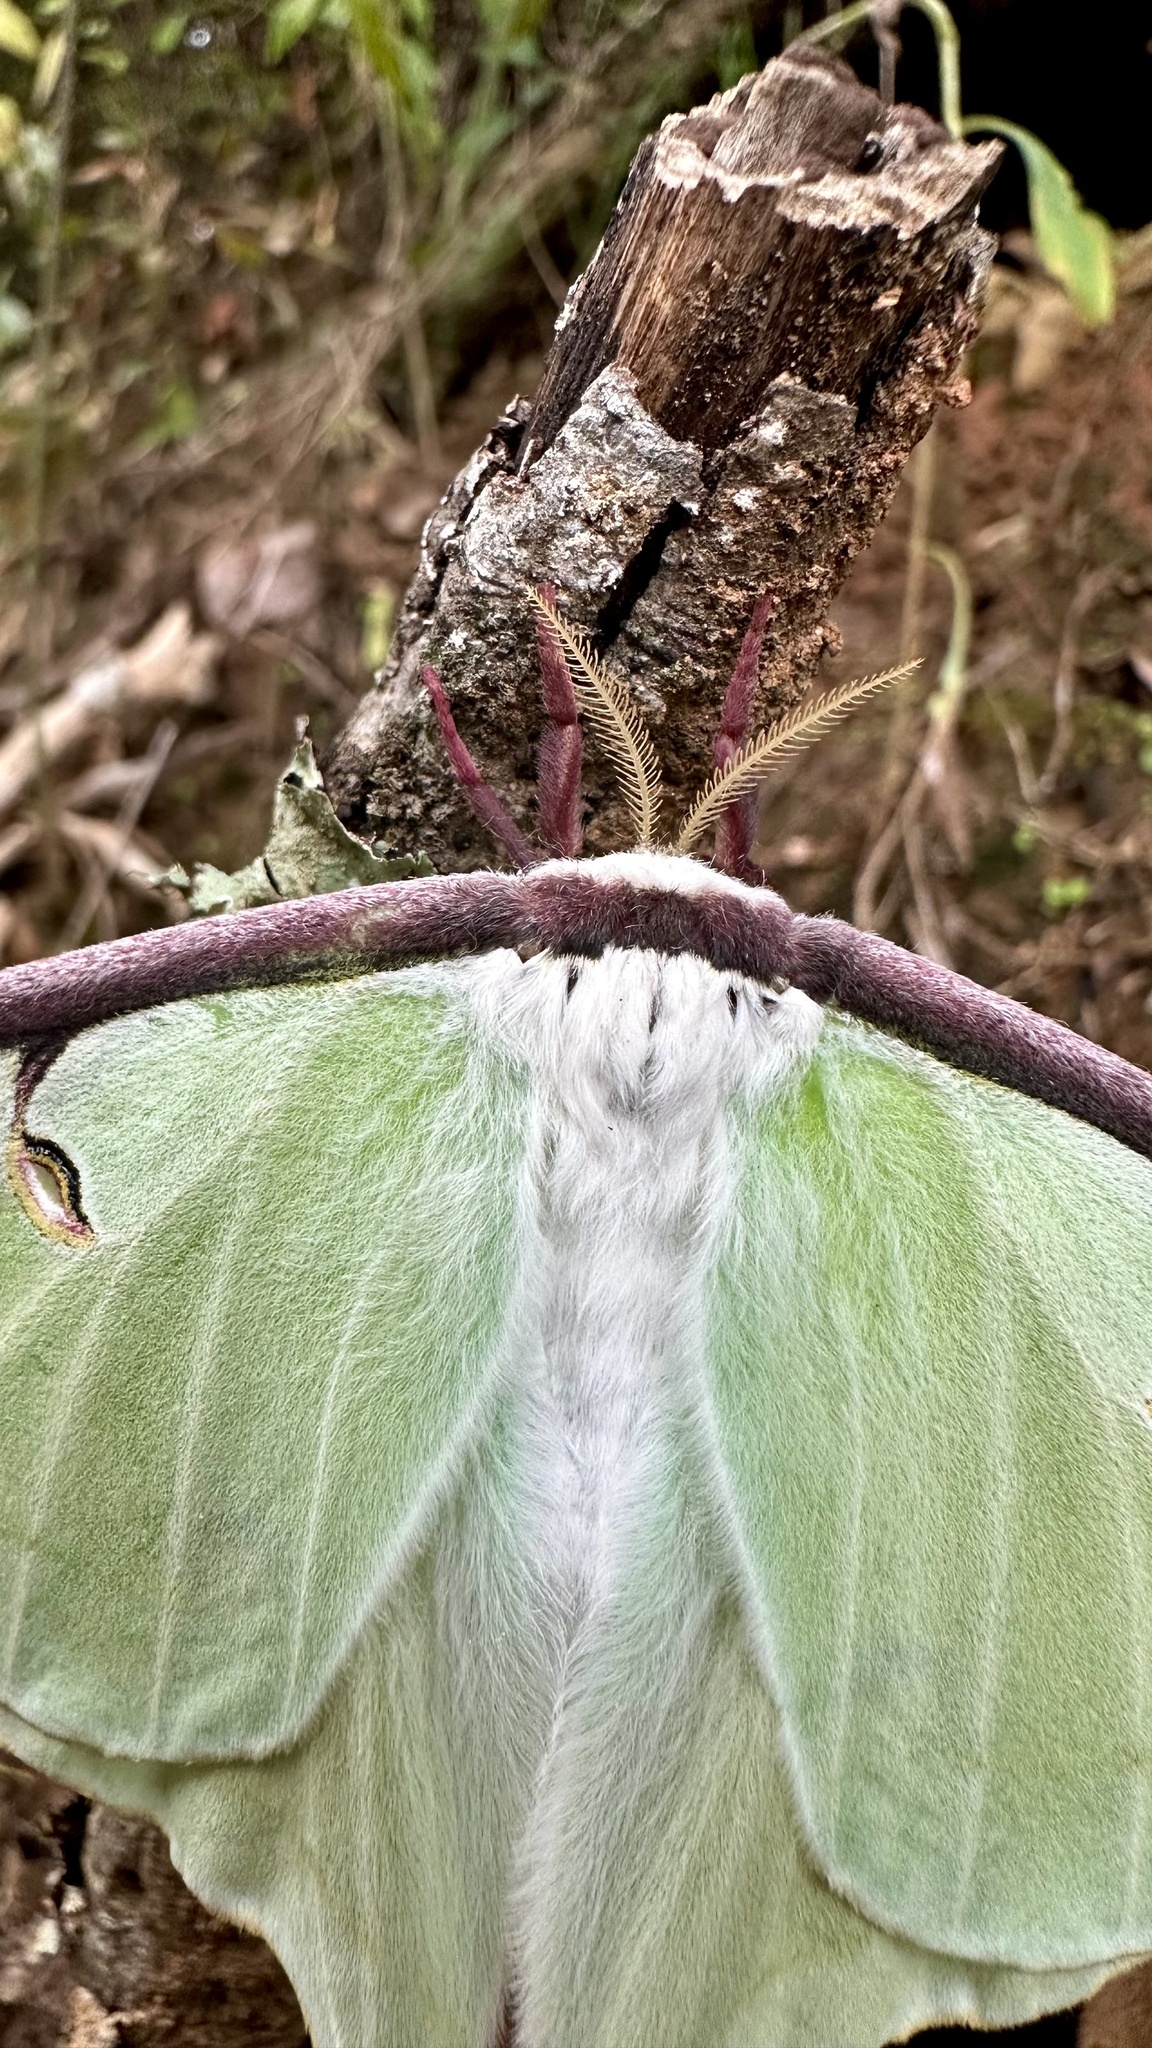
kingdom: Animalia
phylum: Arthropoda
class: Insecta
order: Lepidoptera
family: Saturniidae
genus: Actias
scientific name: Actias luna
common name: Luna moth
